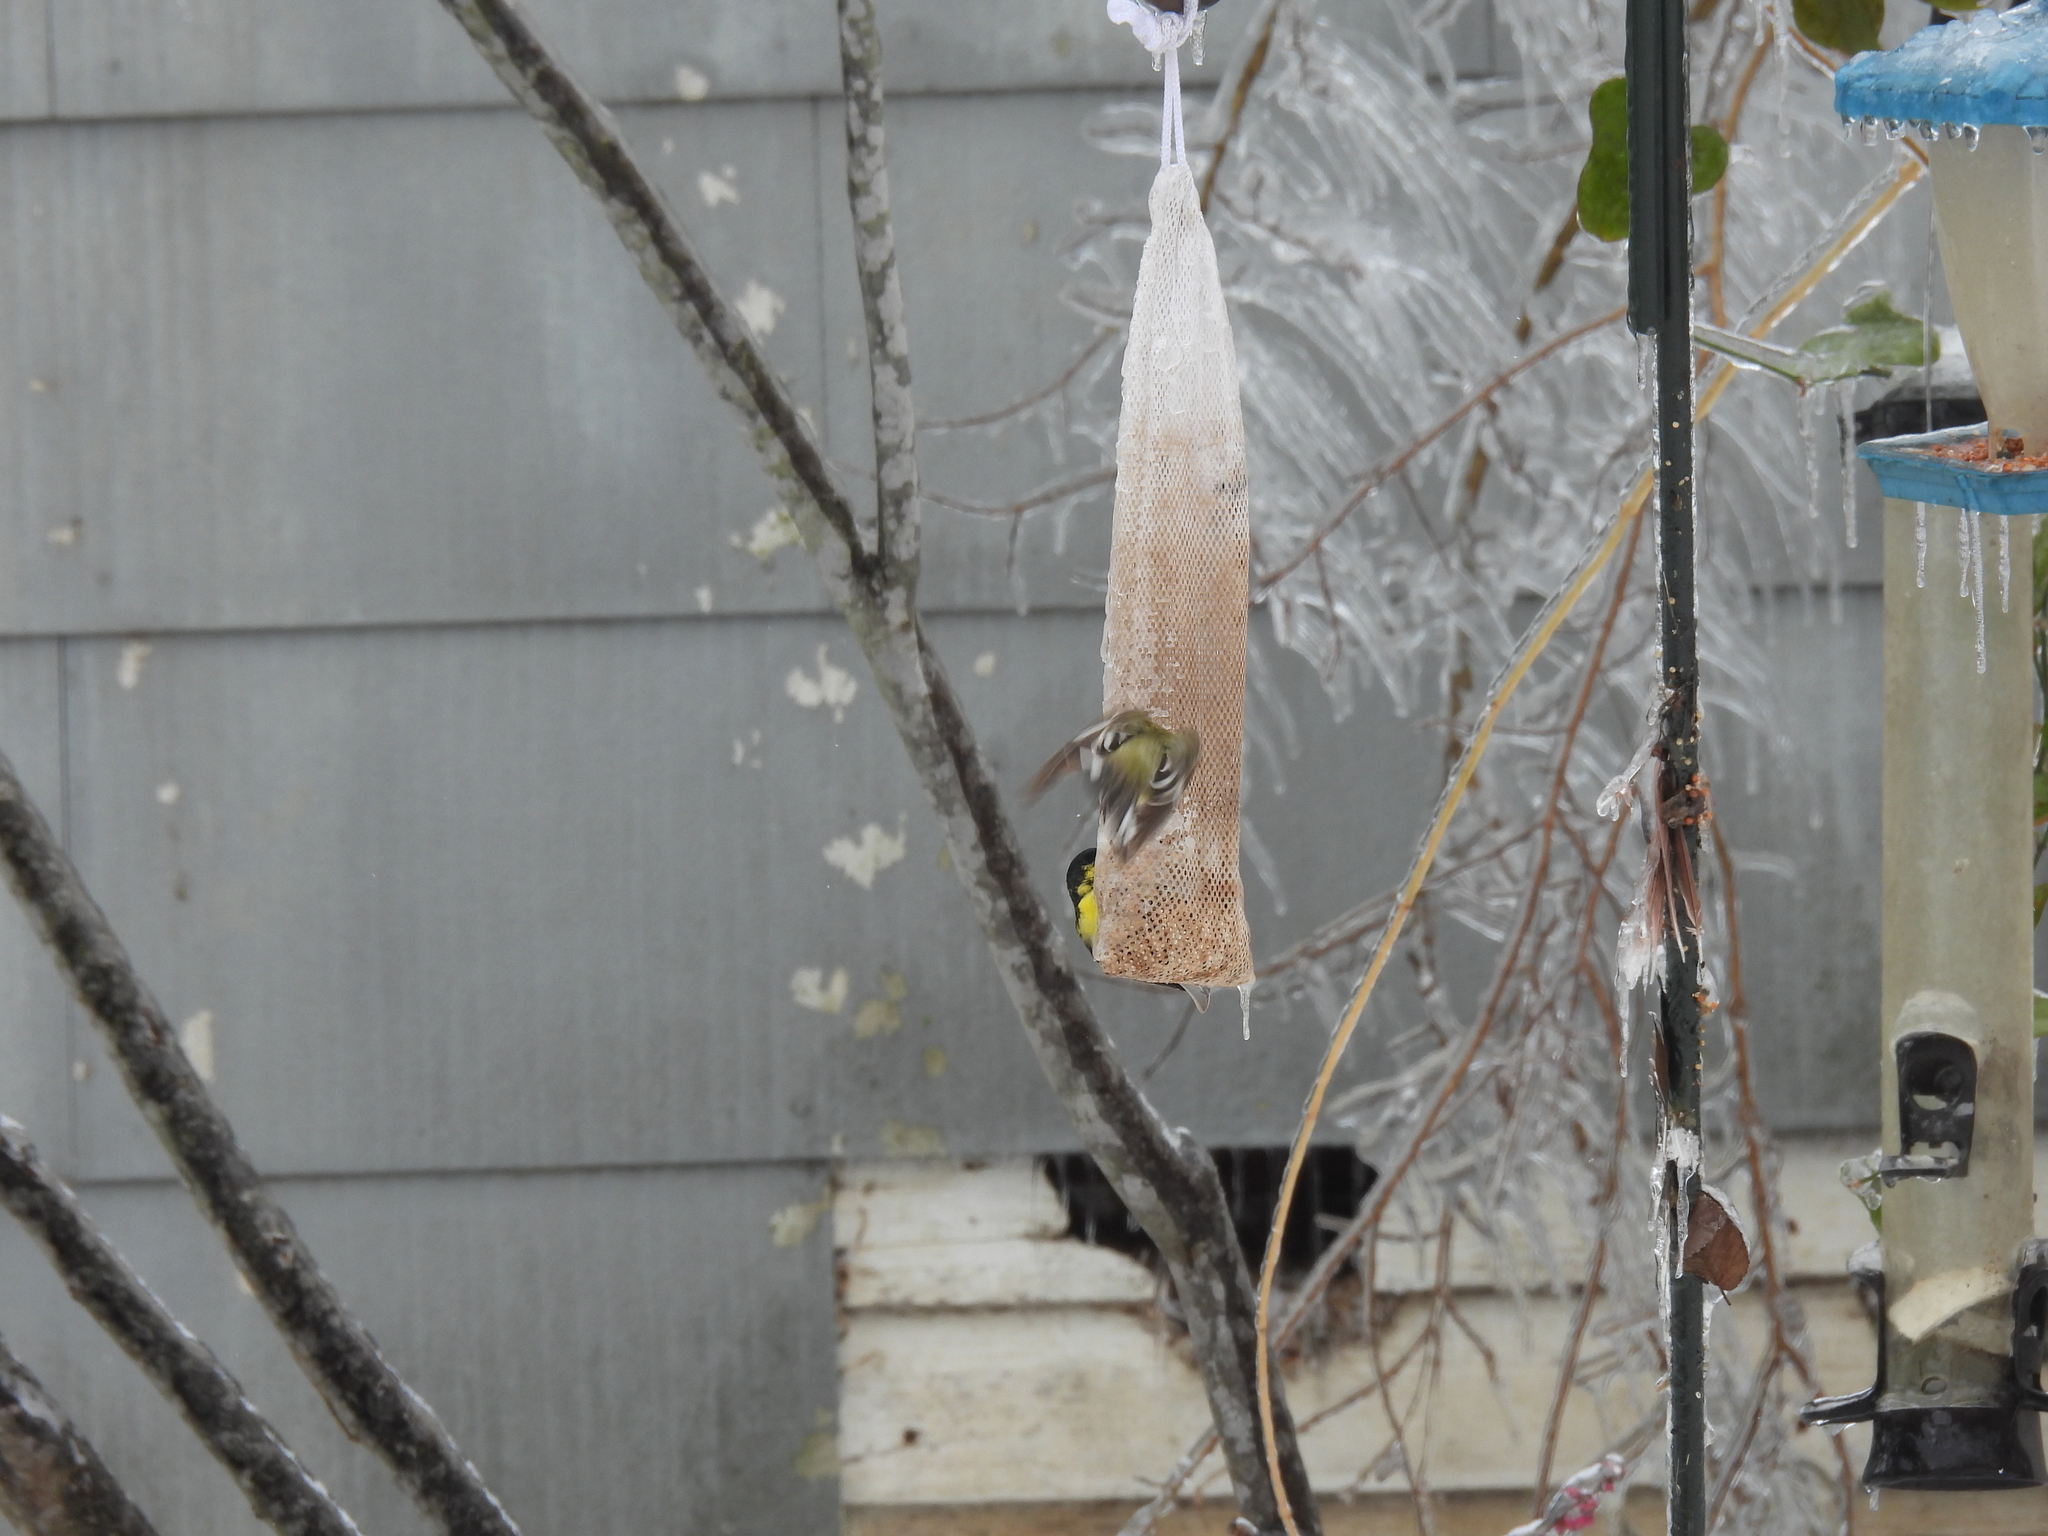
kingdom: Animalia
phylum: Chordata
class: Aves
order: Passeriformes
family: Fringillidae
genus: Spinus
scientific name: Spinus tristis
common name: American goldfinch
